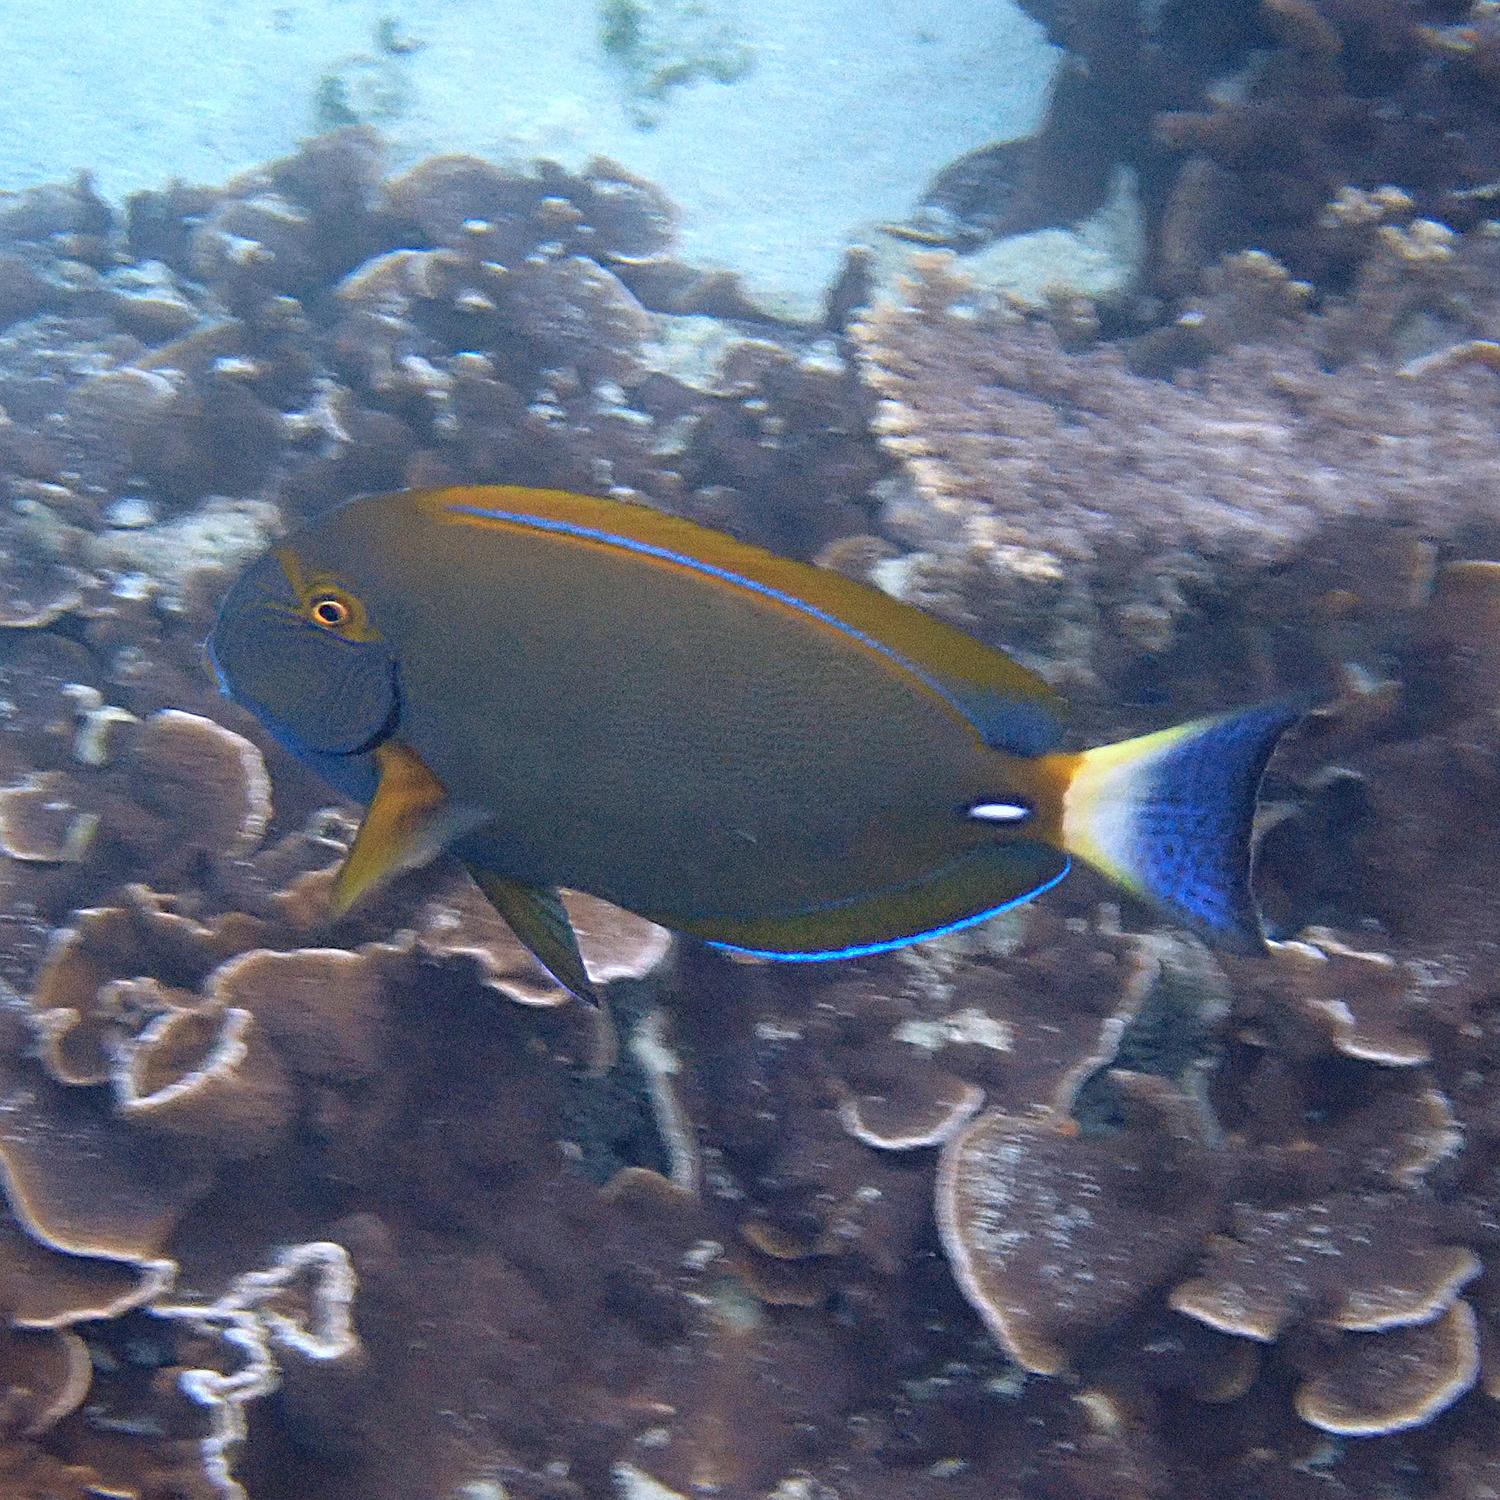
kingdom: Animalia
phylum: Chordata
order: Perciformes
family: Acanthuridae
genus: Acanthurus
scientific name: Acanthurus dussumieri
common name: Dussumier's surgeonfish
